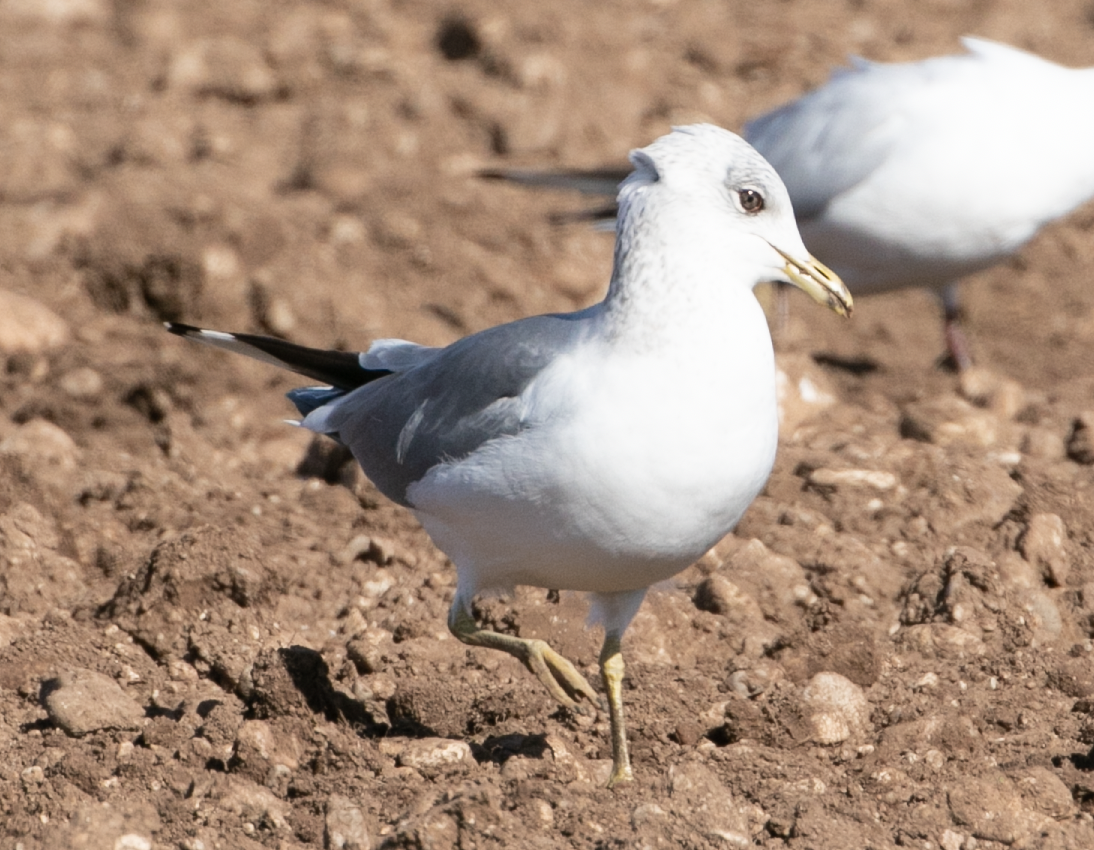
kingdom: Animalia
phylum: Chordata
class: Aves
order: Charadriiformes
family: Laridae
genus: Larus
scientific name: Larus canus
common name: Mew gull
